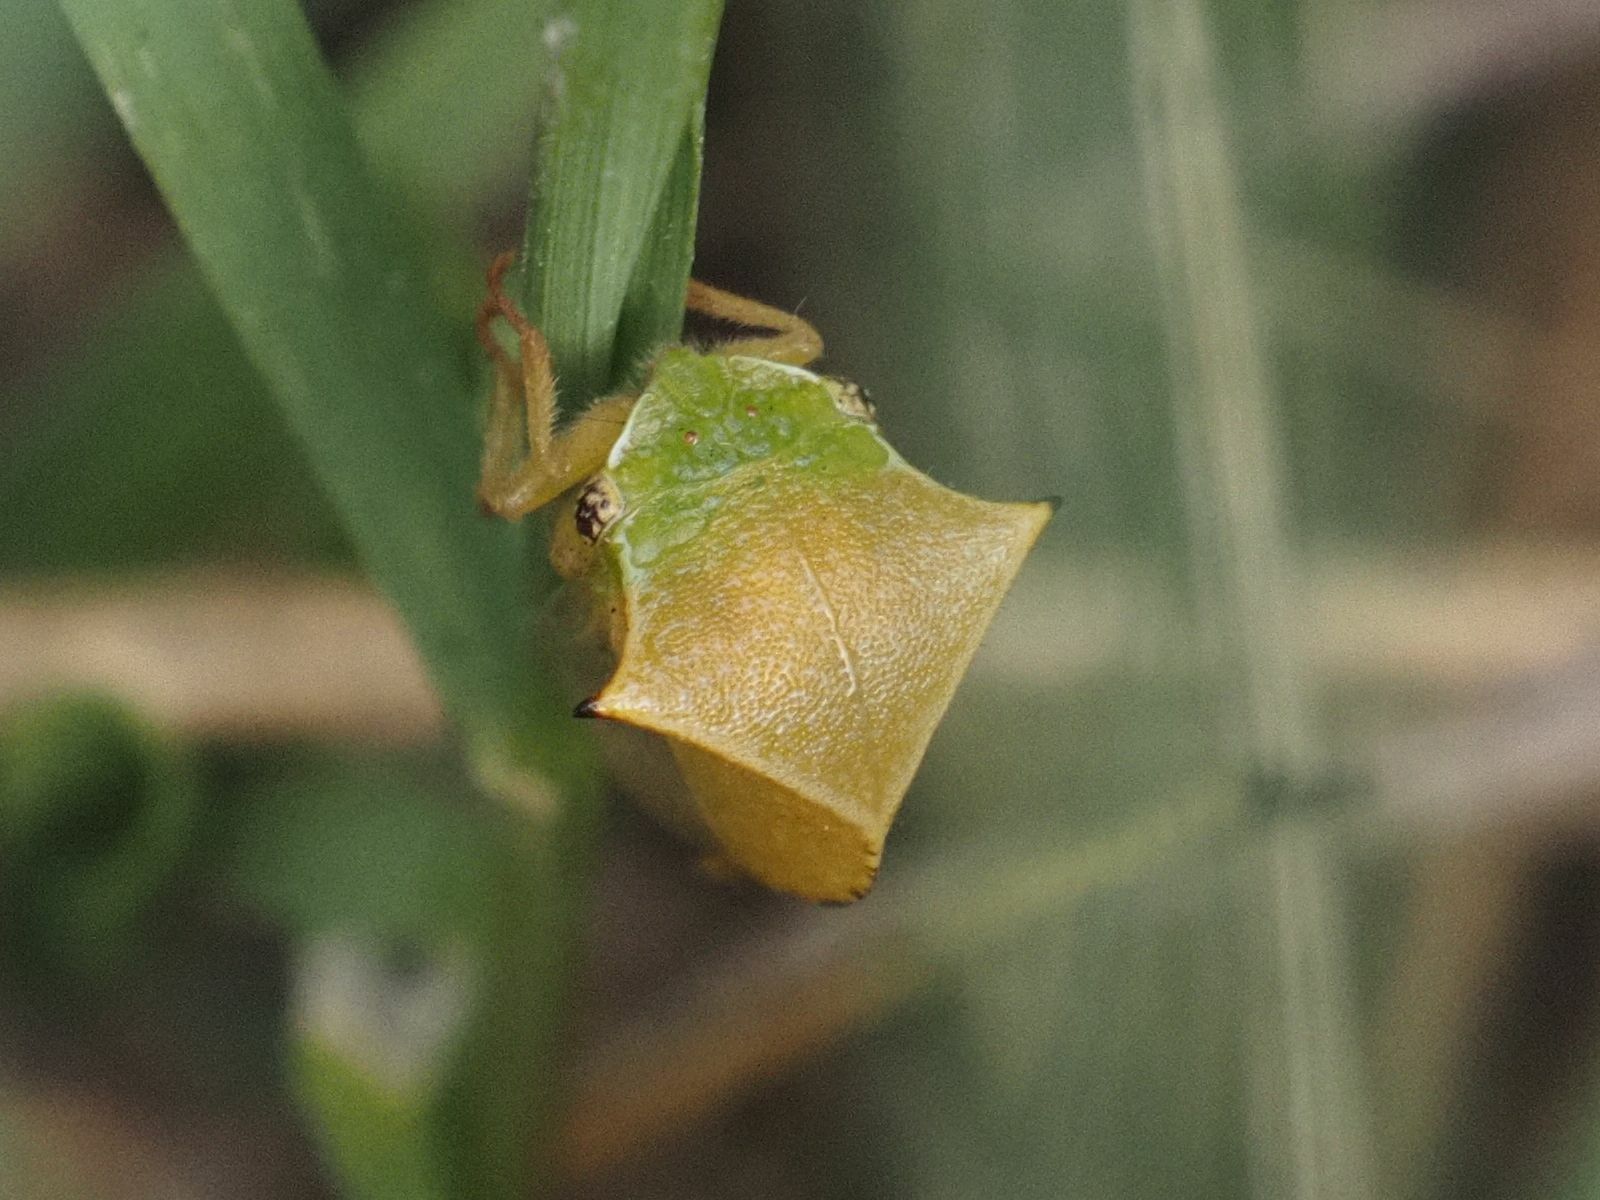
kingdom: Animalia
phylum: Arthropoda
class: Insecta
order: Hemiptera
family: Membracidae
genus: Stictocephala
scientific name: Stictocephala bisonia
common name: American buffalo treehopper
